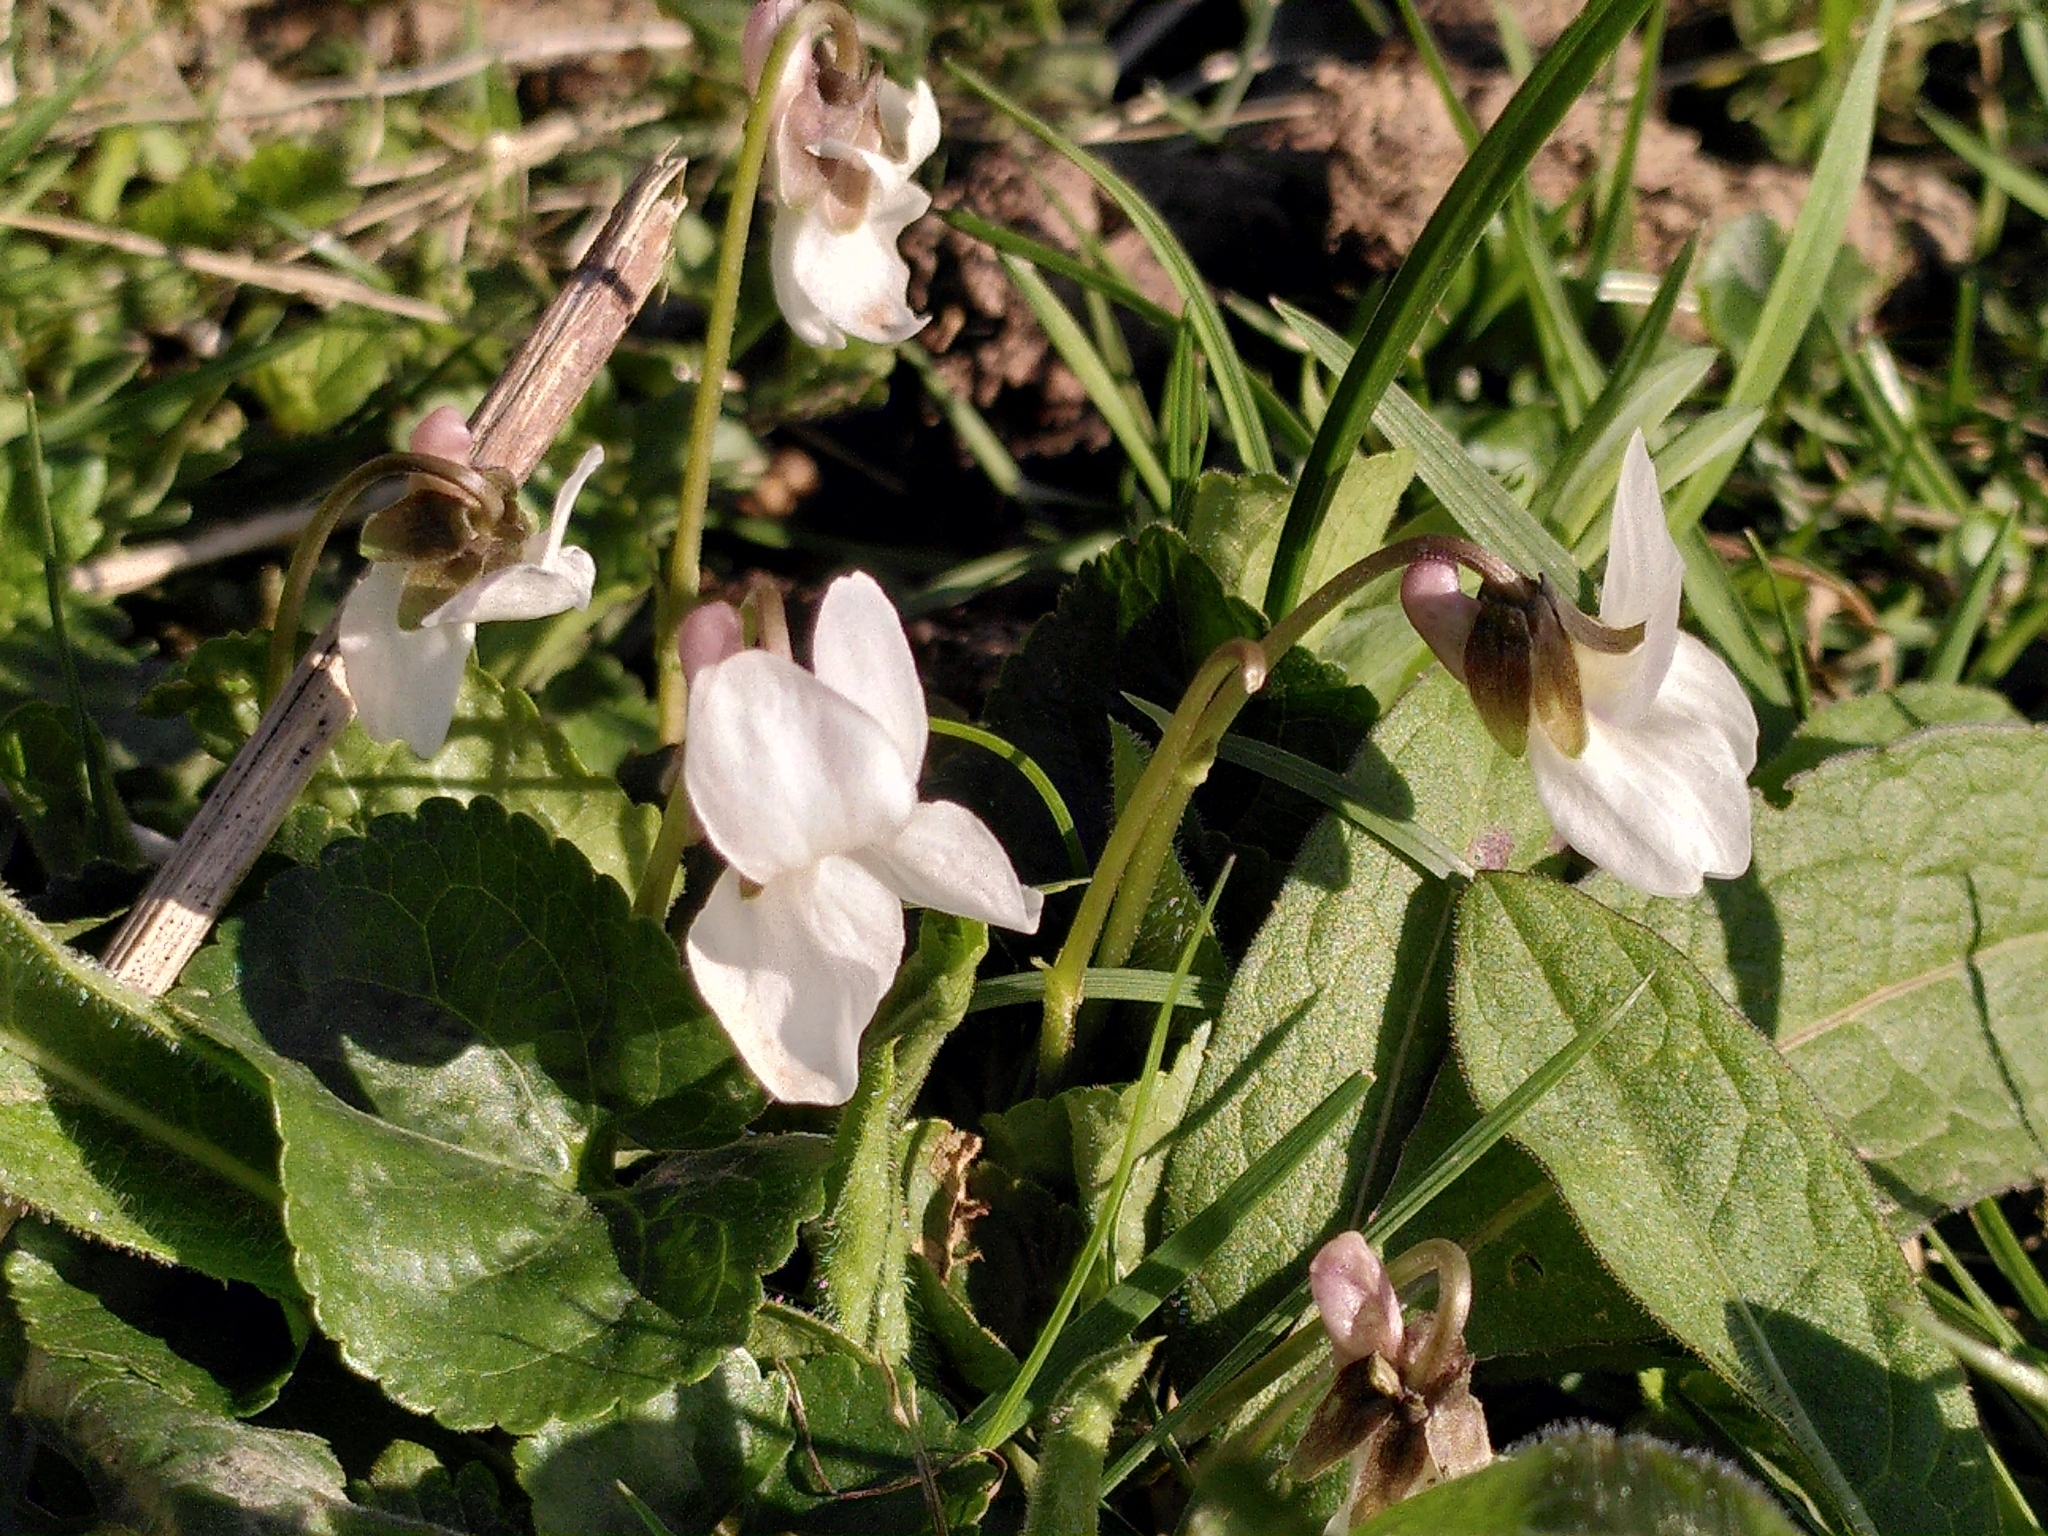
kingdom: Plantae
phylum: Tracheophyta
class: Magnoliopsida
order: Malpighiales
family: Violaceae
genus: Viola
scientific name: Viola odorata
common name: Sweet violet
